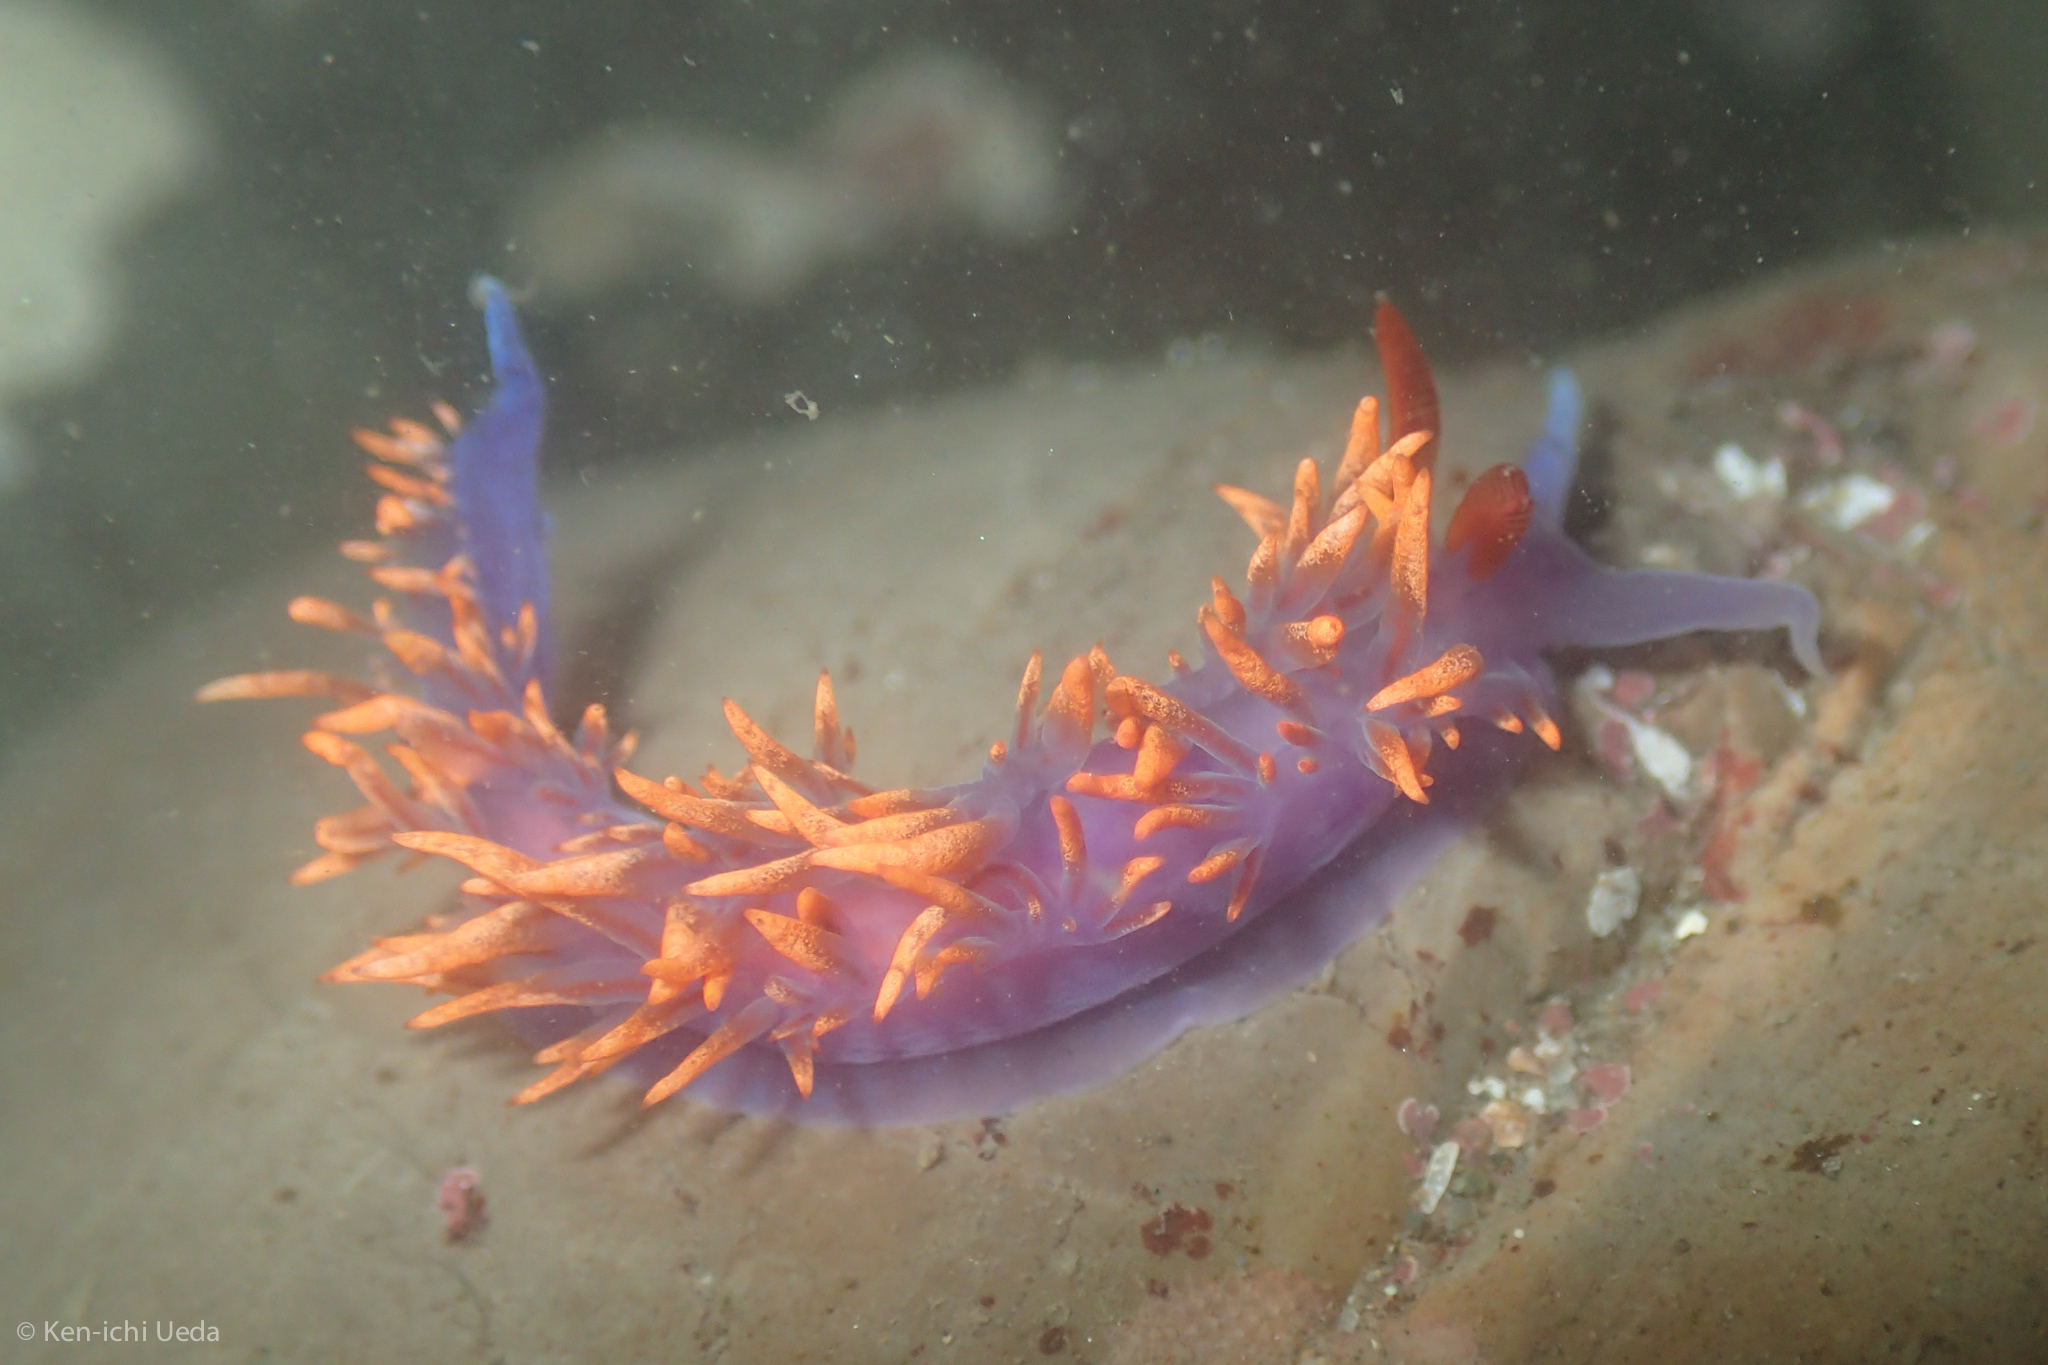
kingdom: Animalia
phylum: Mollusca
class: Gastropoda
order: Nudibranchia
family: Flabellinopsidae
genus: Flabellinopsis
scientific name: Flabellinopsis iodinea
